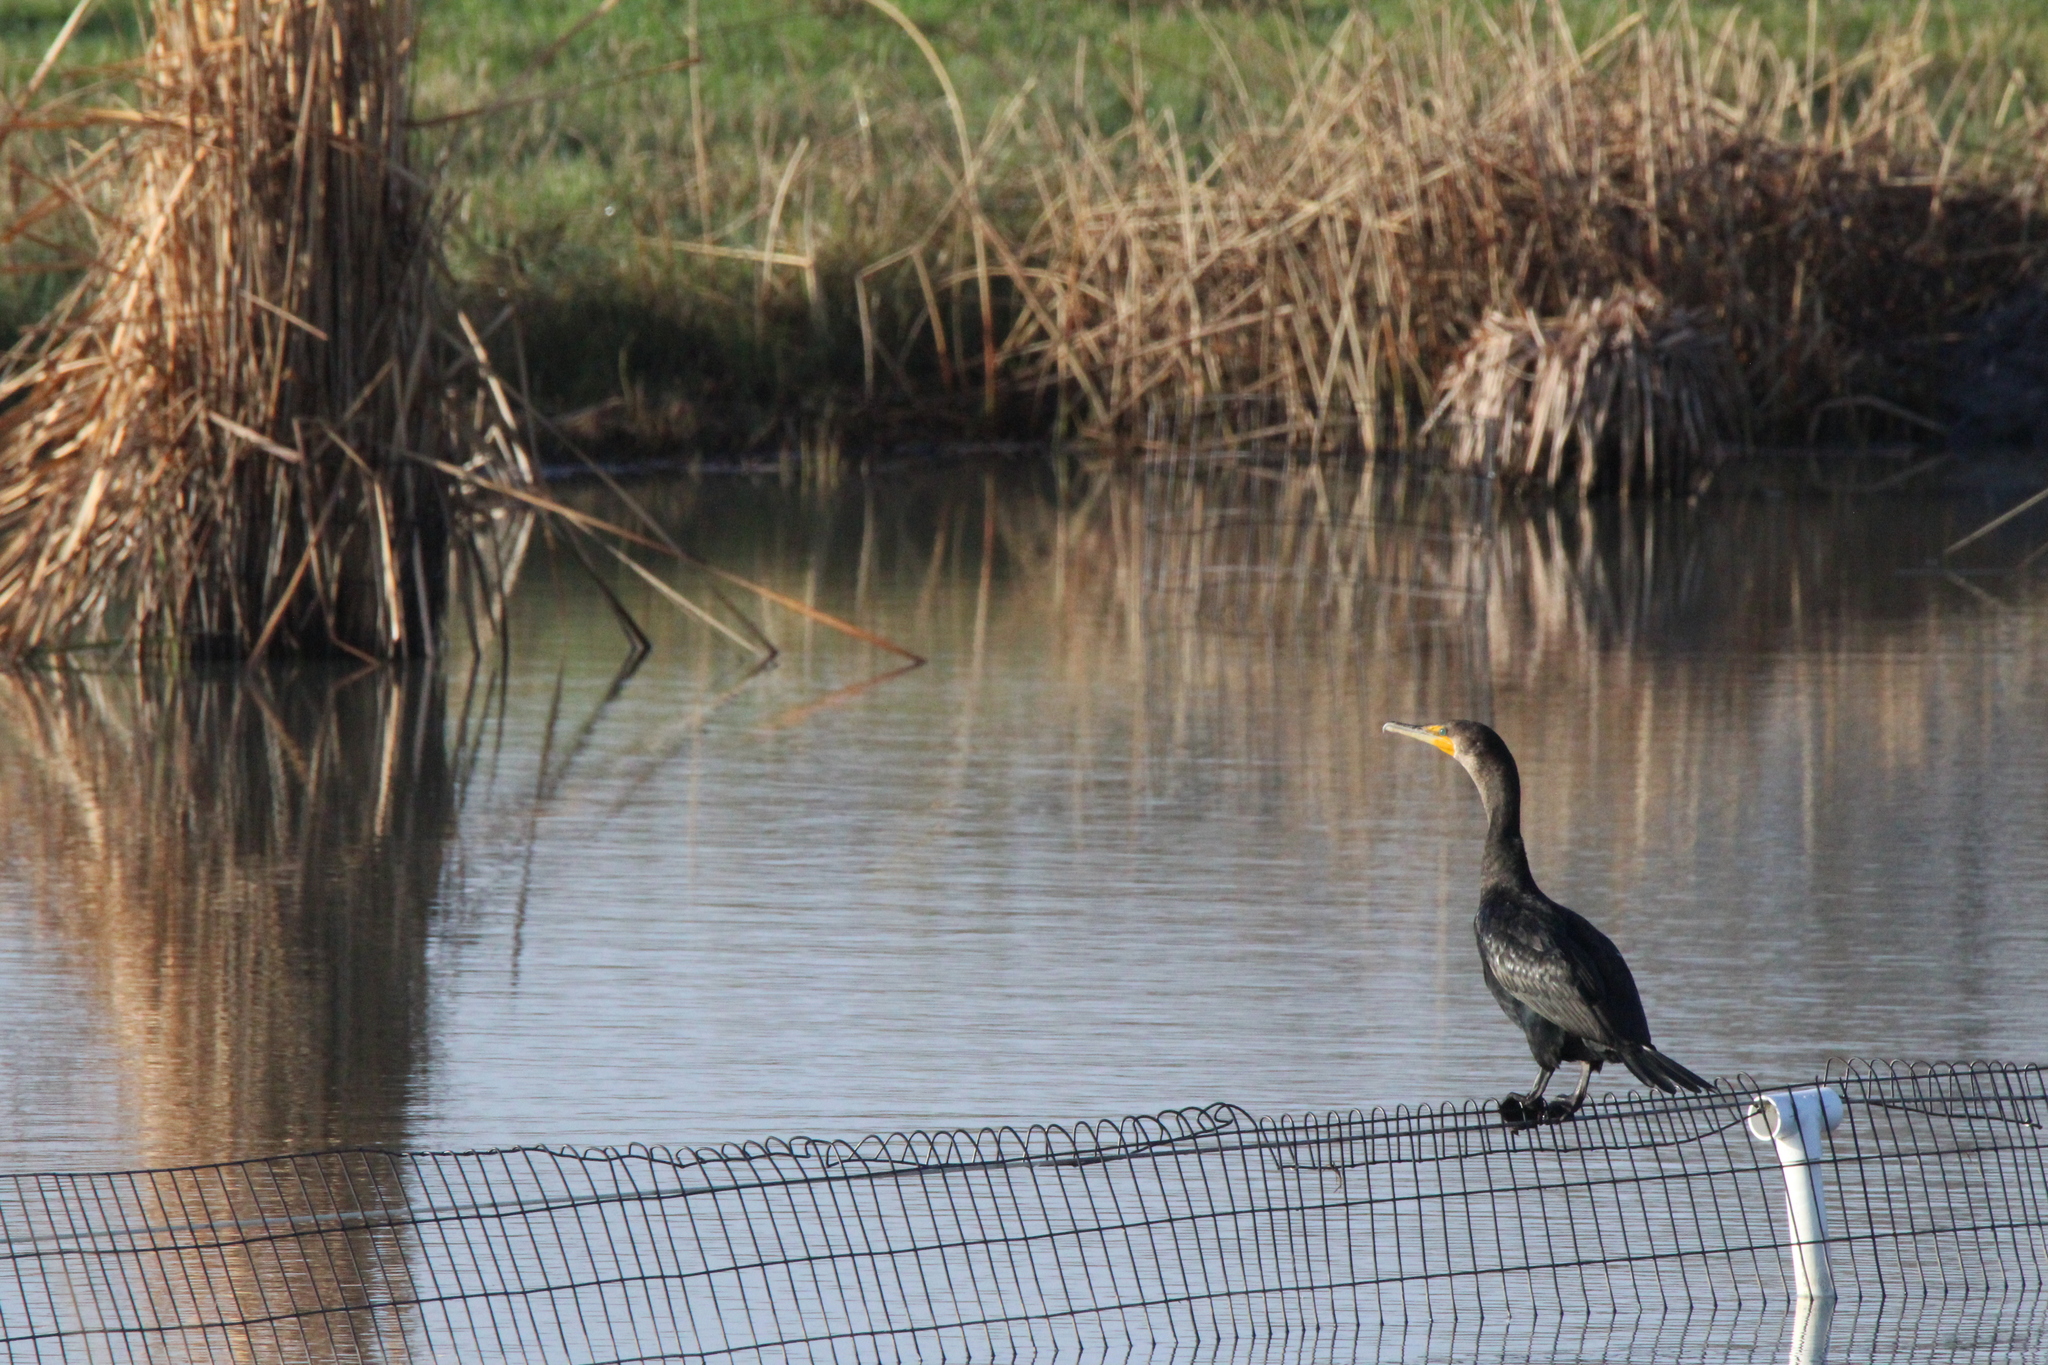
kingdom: Animalia
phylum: Chordata
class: Aves
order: Suliformes
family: Phalacrocoracidae
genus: Phalacrocorax
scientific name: Phalacrocorax auritus
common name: Double-crested cormorant
